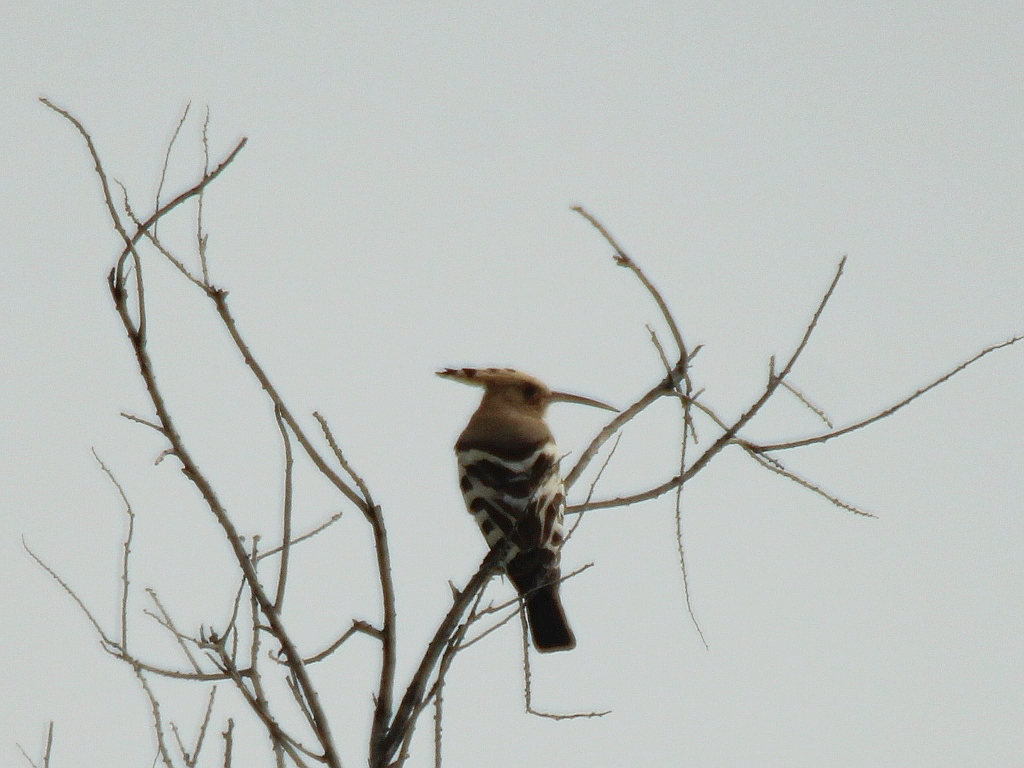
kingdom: Animalia
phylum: Chordata
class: Aves
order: Bucerotiformes
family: Upupidae
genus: Upupa
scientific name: Upupa epops
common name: Eurasian hoopoe
